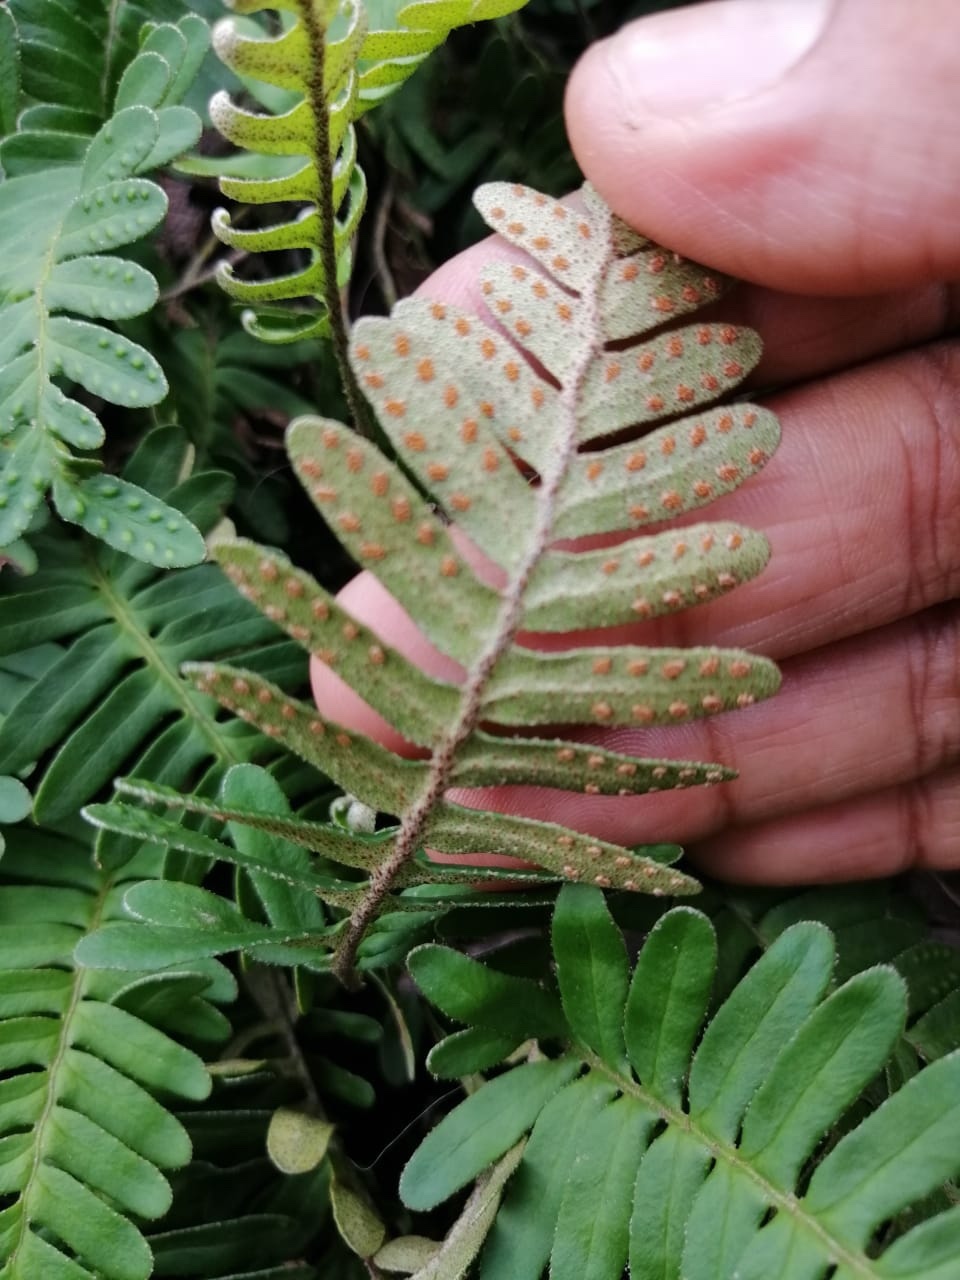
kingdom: Plantae
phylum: Tracheophyta
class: Polypodiopsida
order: Polypodiales
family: Polypodiaceae
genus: Pleopeltis
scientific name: Pleopeltis michauxiana
